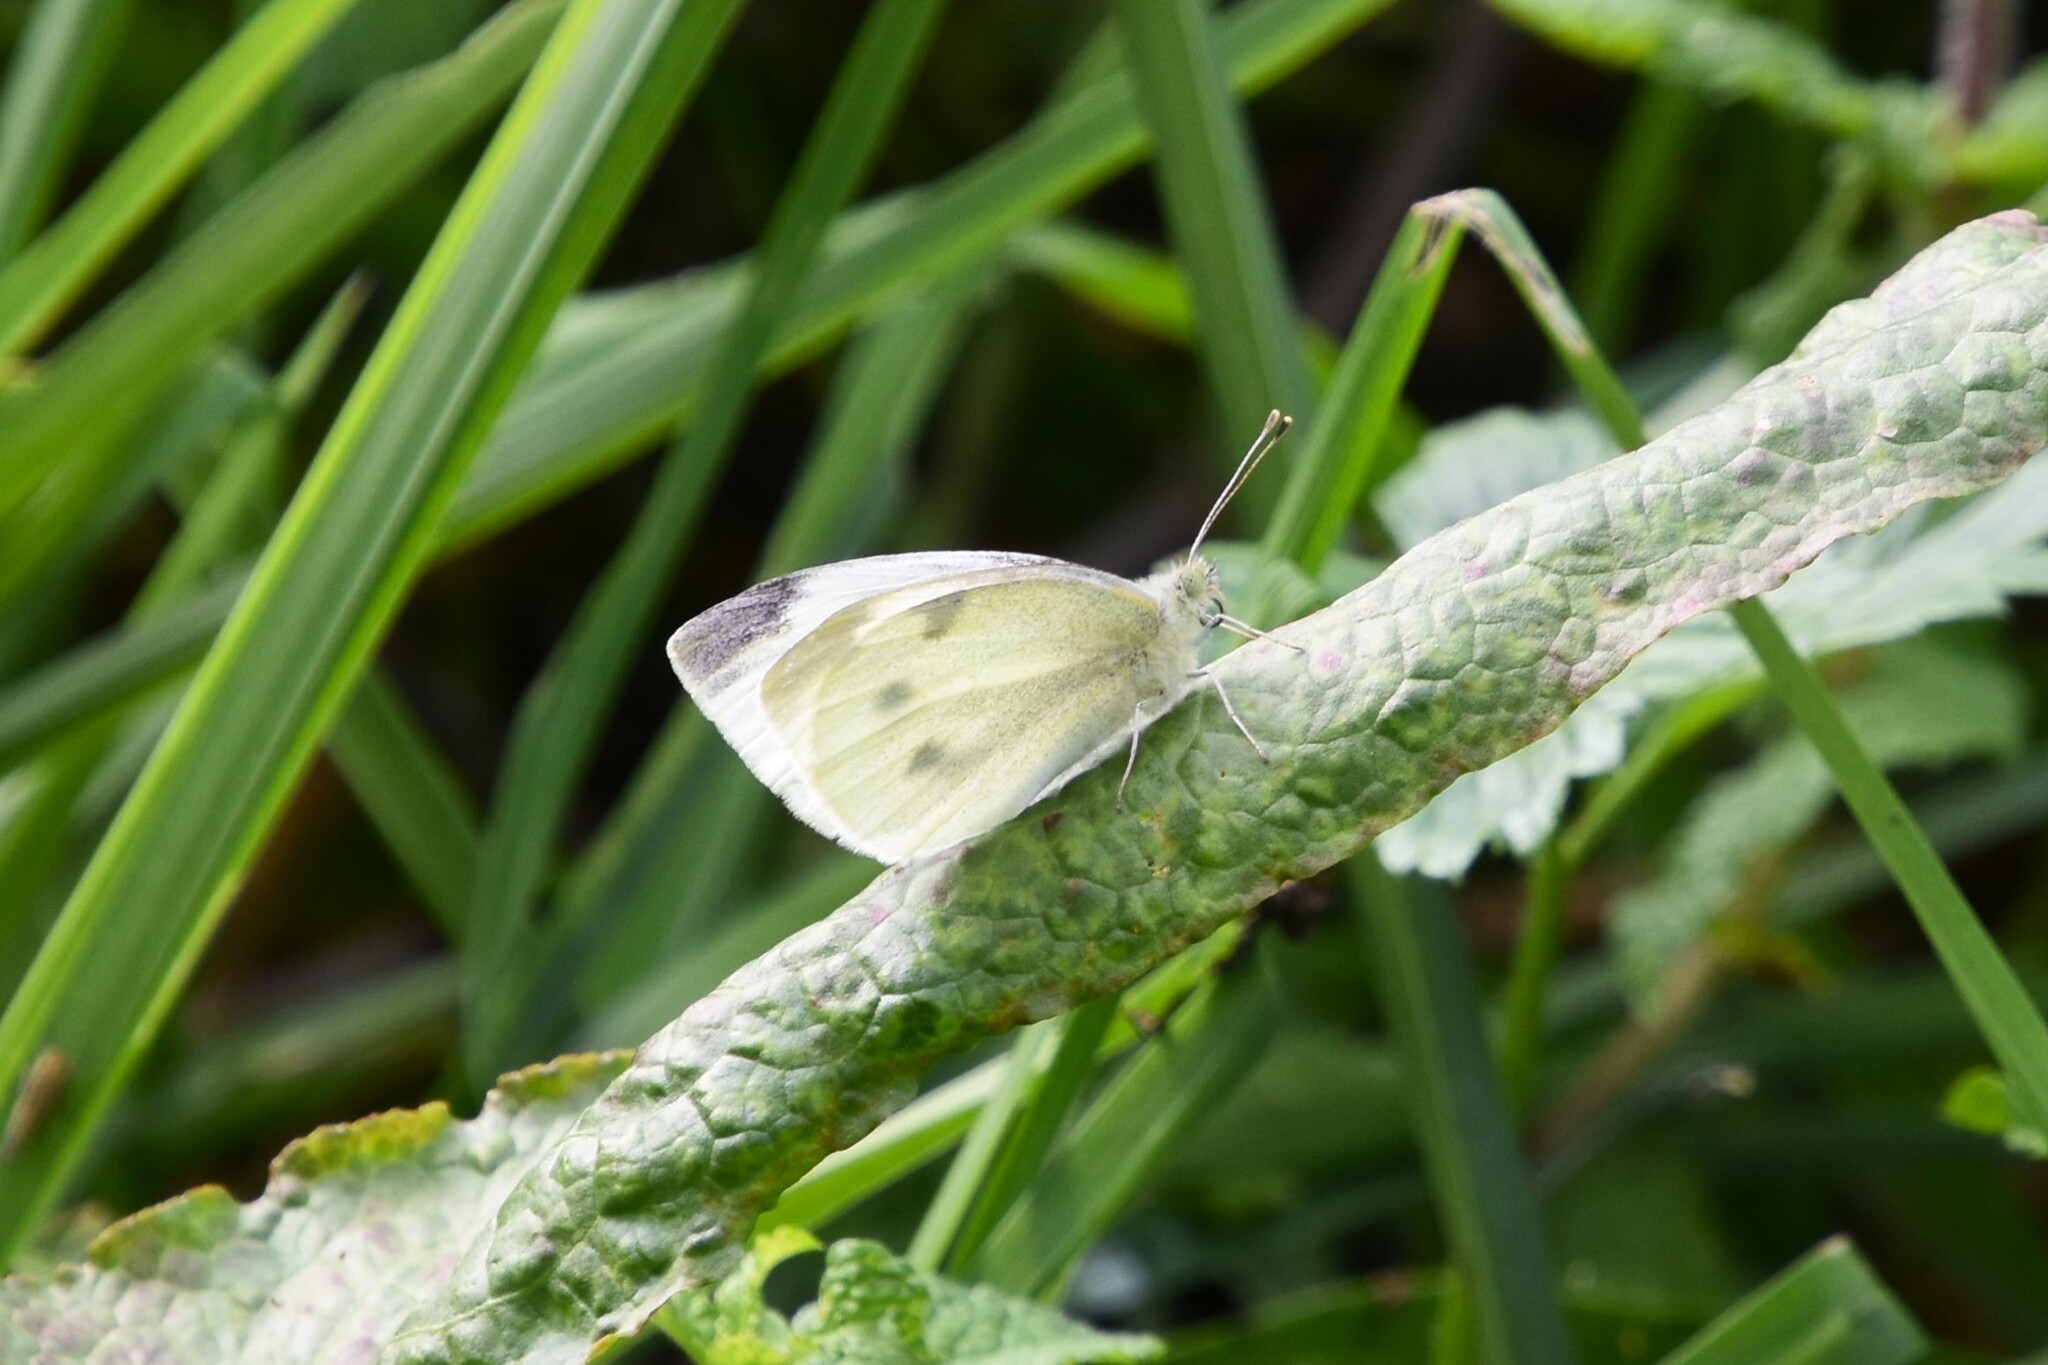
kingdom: Animalia
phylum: Arthropoda
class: Insecta
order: Lepidoptera
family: Pieridae
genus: Pieris
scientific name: Pieris rapae
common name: Small white
